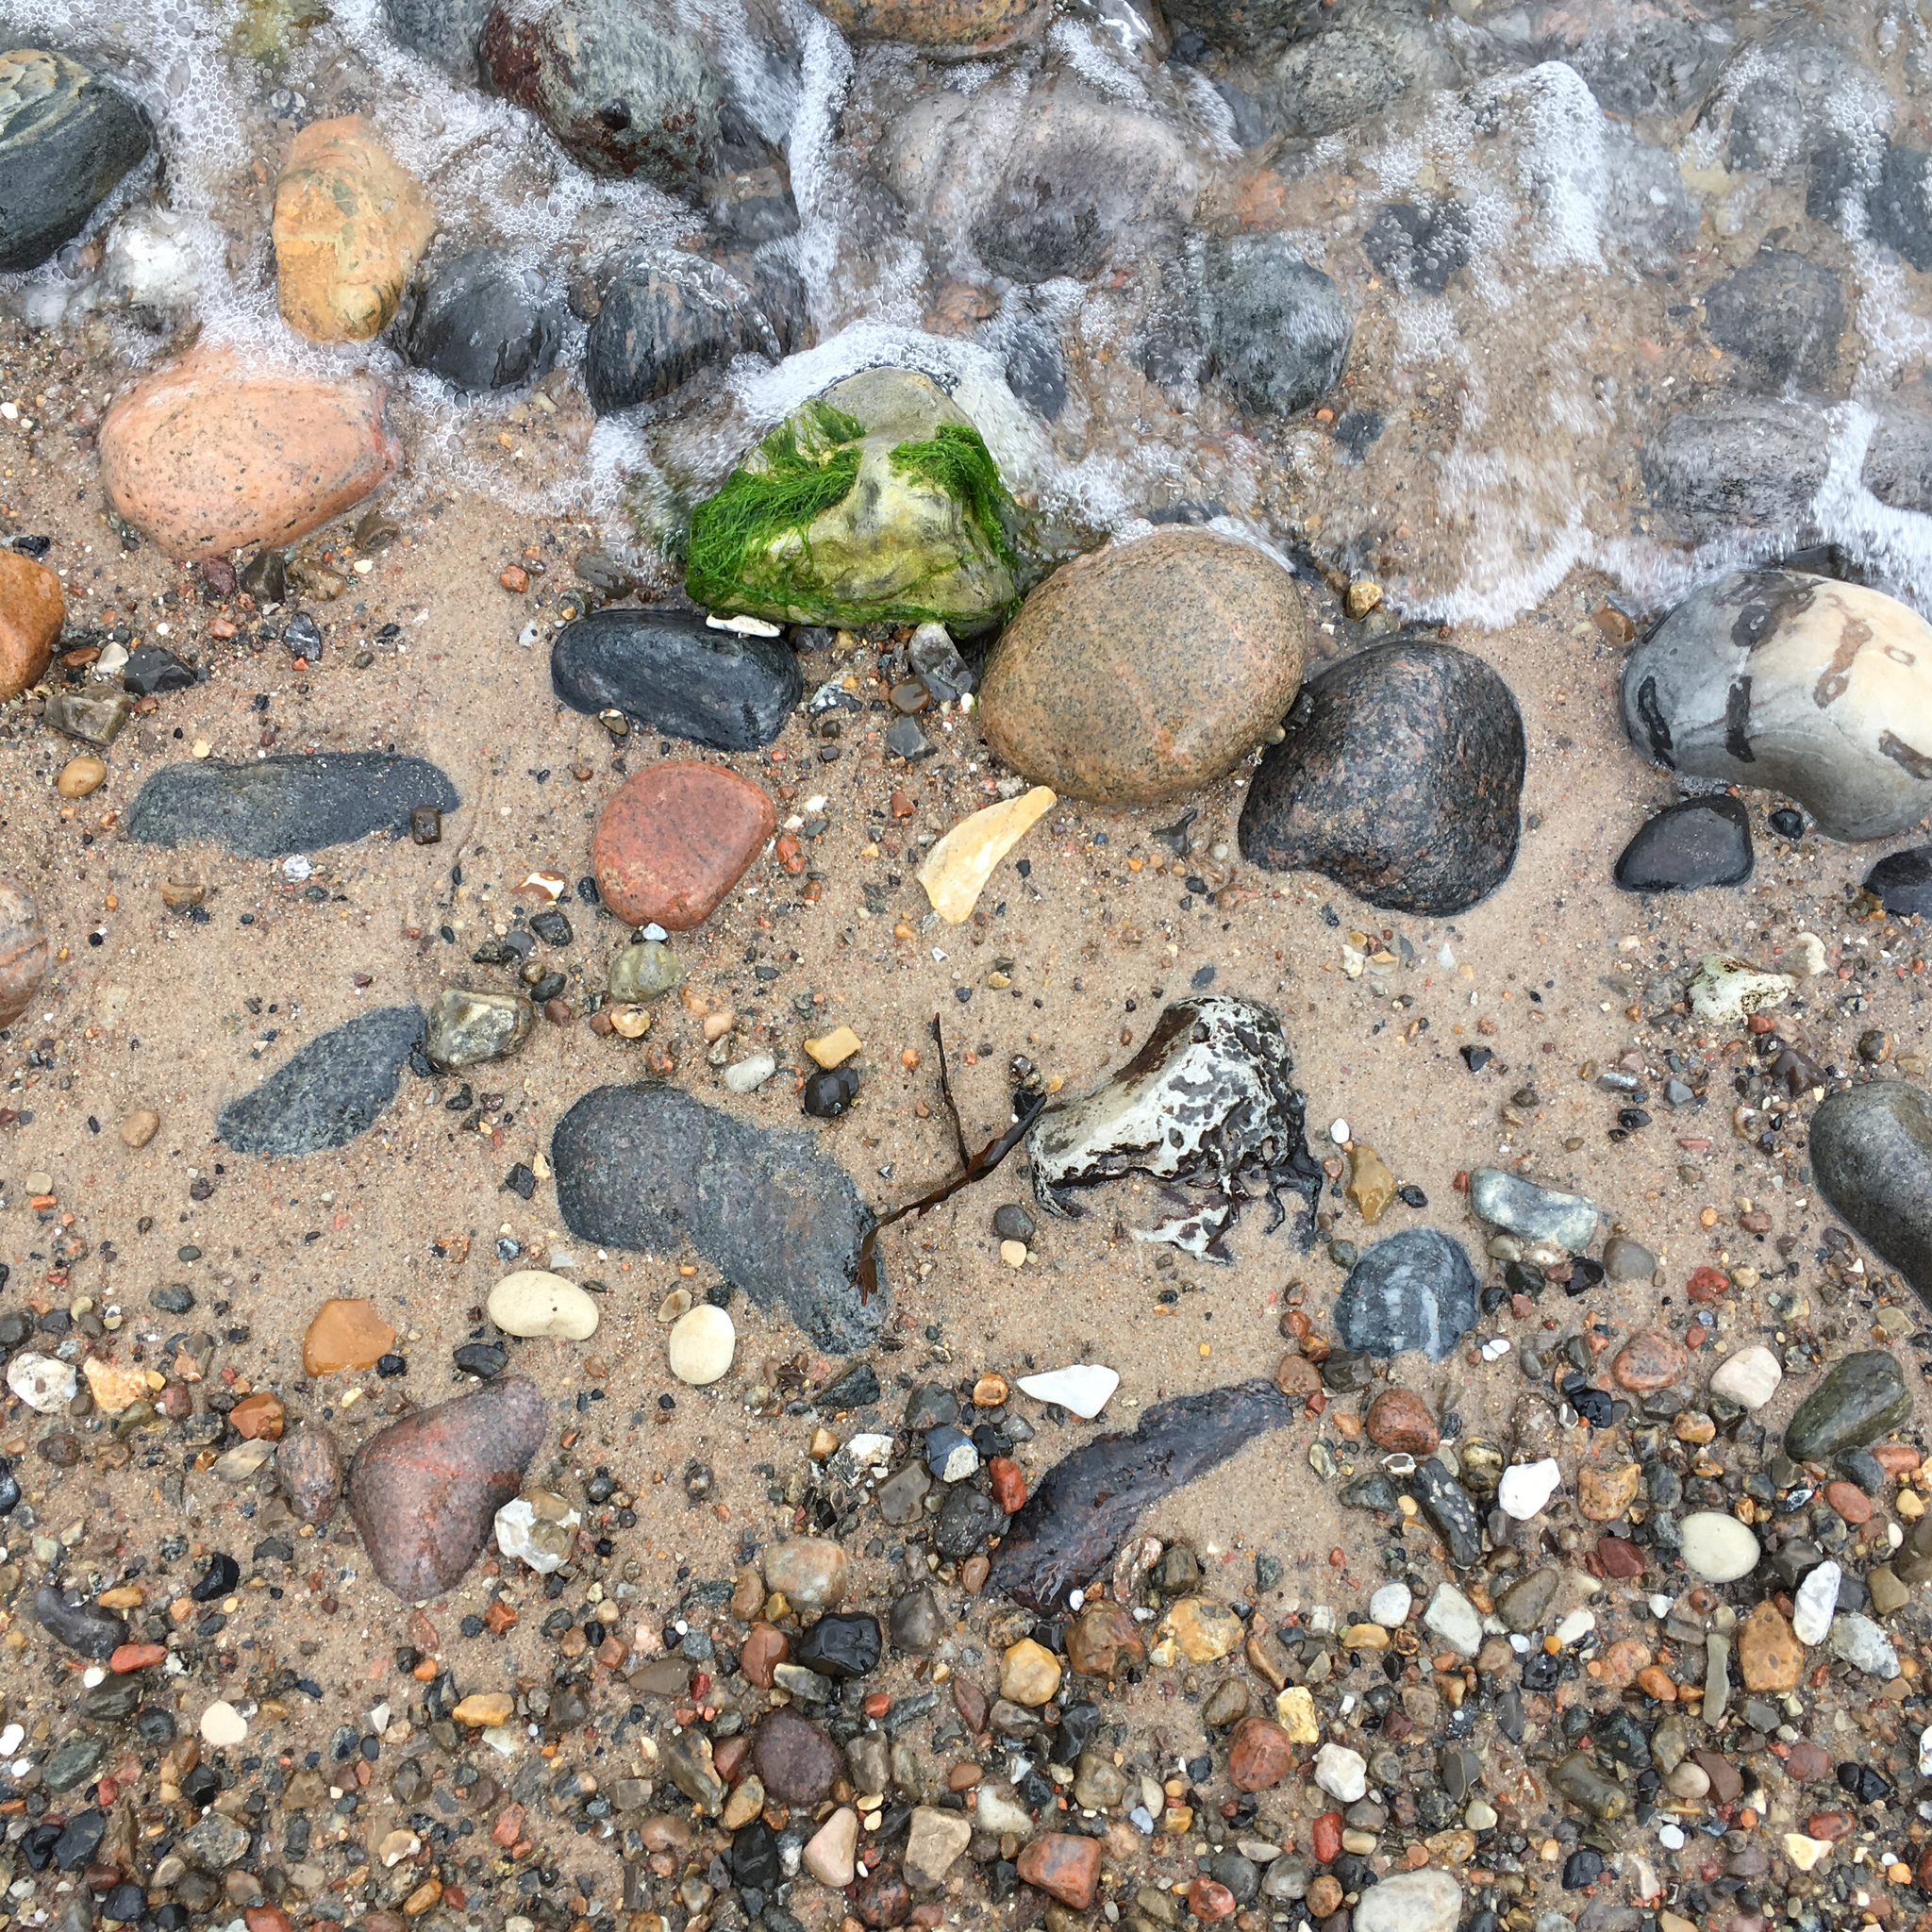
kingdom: Chromista
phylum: Ochrophyta
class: Phaeophyceae
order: Fucales
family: Fucaceae
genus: Ascophyllum
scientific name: Ascophyllum nodosum
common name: Knotted wrack
